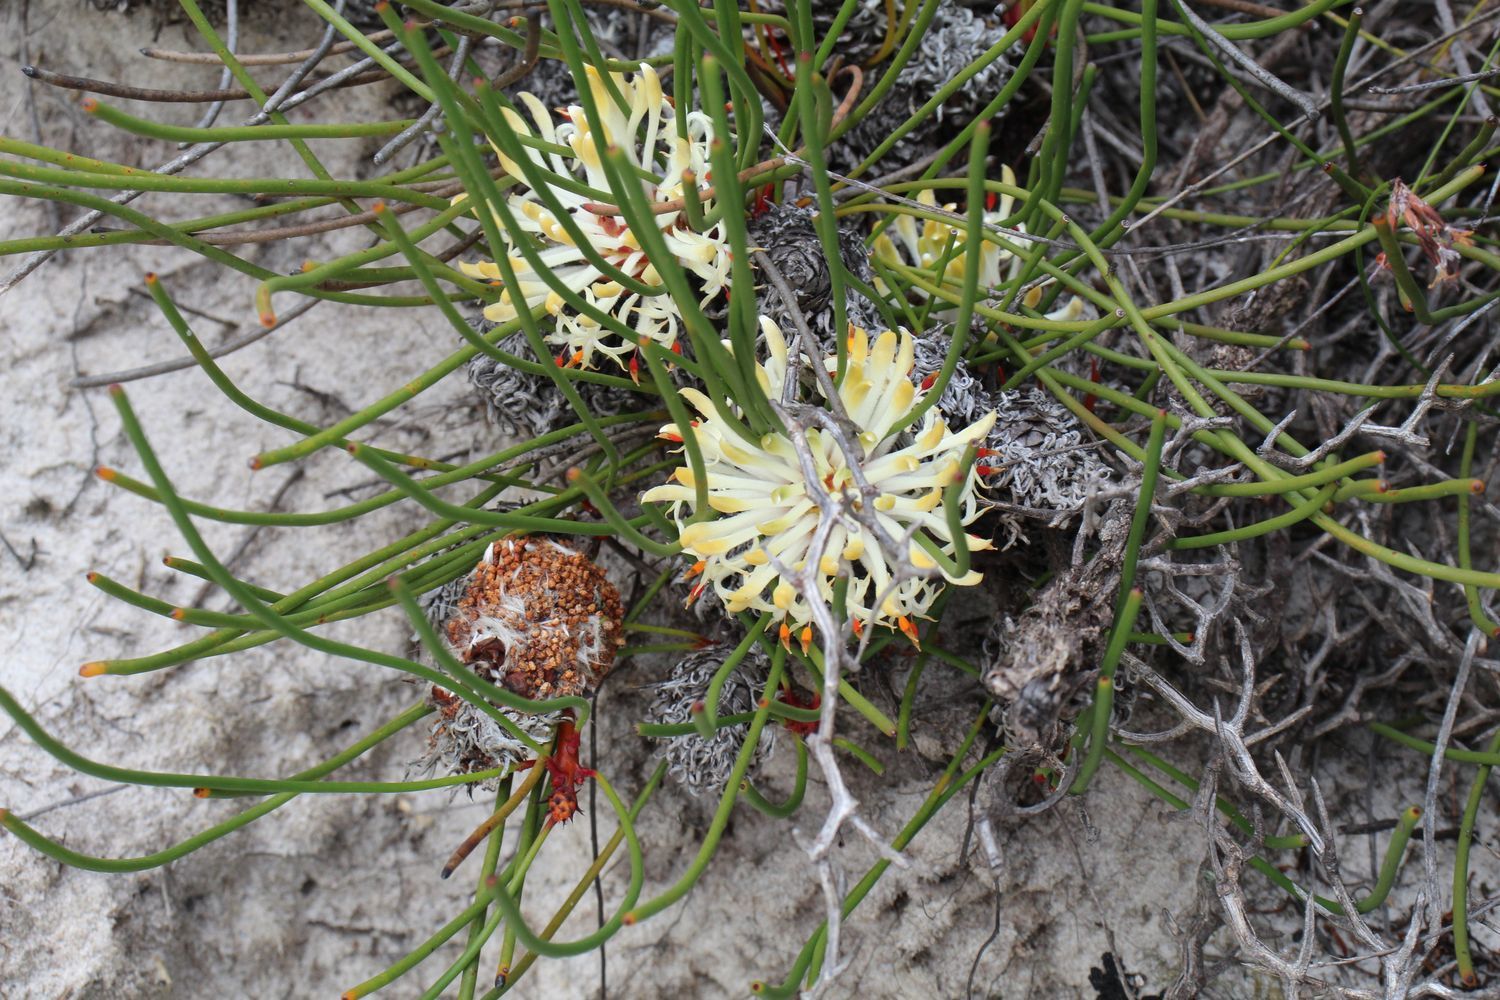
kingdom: Plantae
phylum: Tracheophyta
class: Magnoliopsida
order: Proteales
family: Proteaceae
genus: Petrophile
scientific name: Petrophile prostrata
